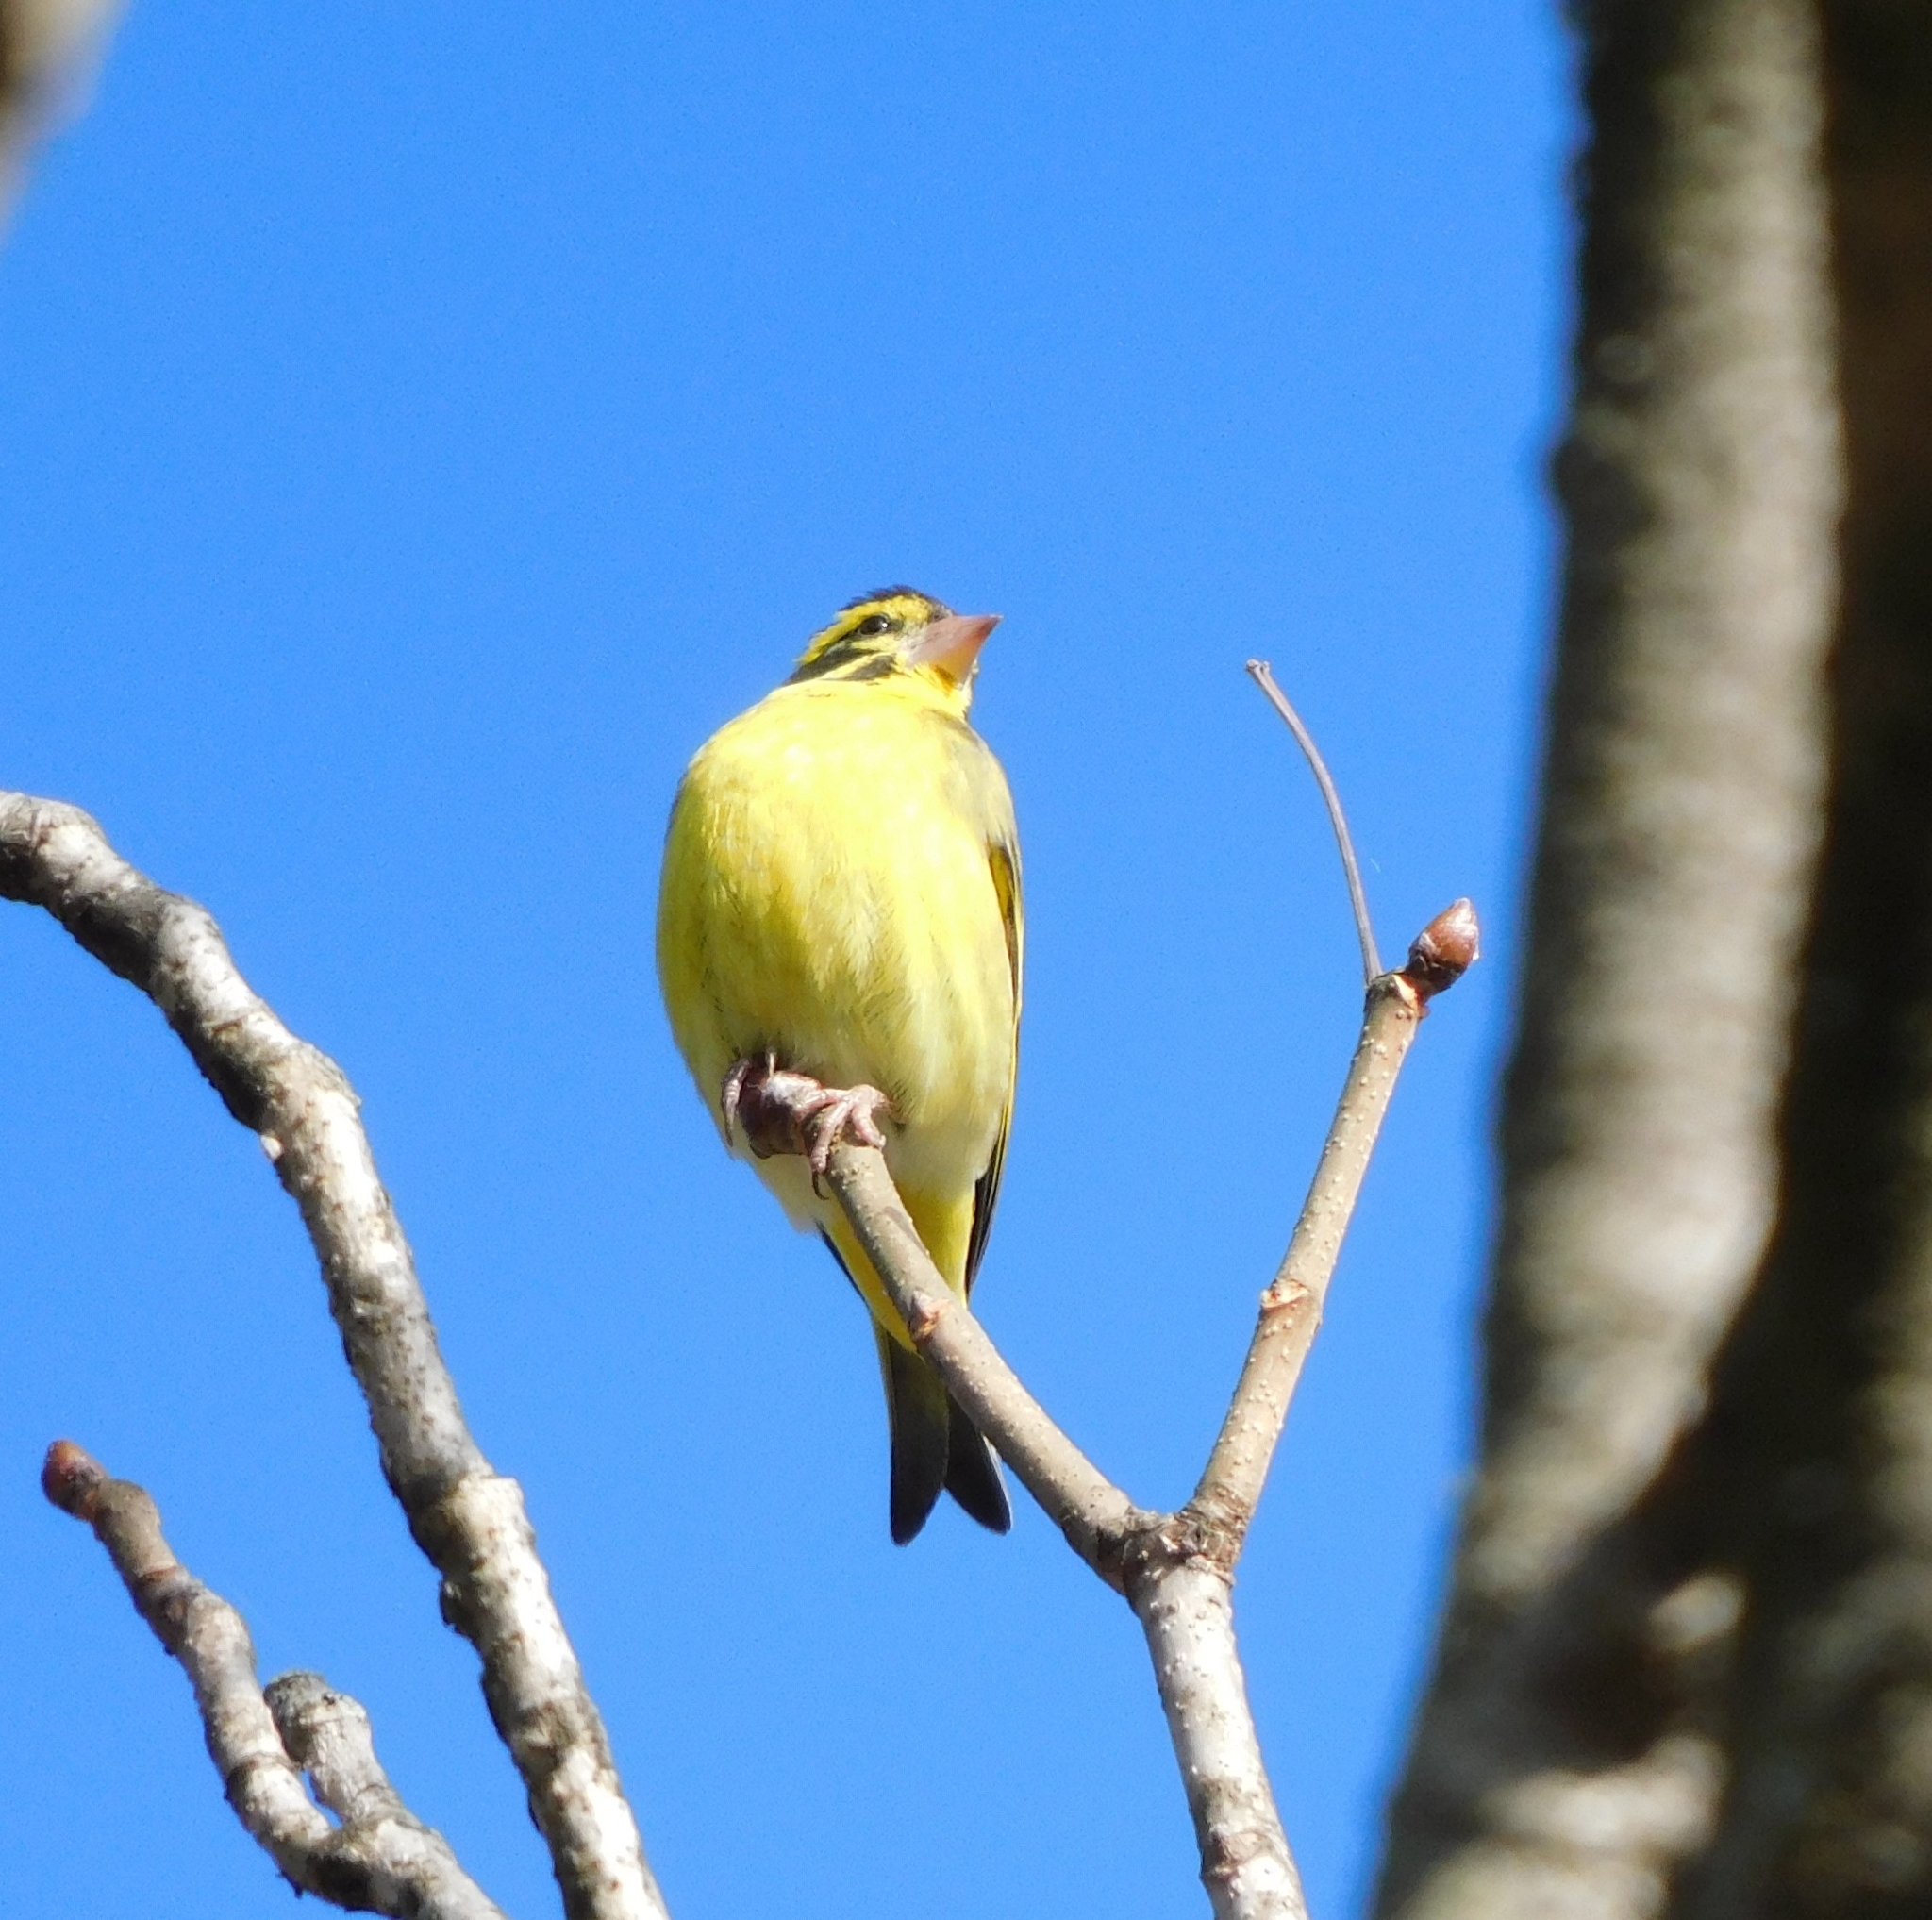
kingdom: Animalia
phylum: Chordata
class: Aves
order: Passeriformes
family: Fringillidae
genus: Chloris
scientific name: Chloris spinoides
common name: Yellow-breasted greenfinch
